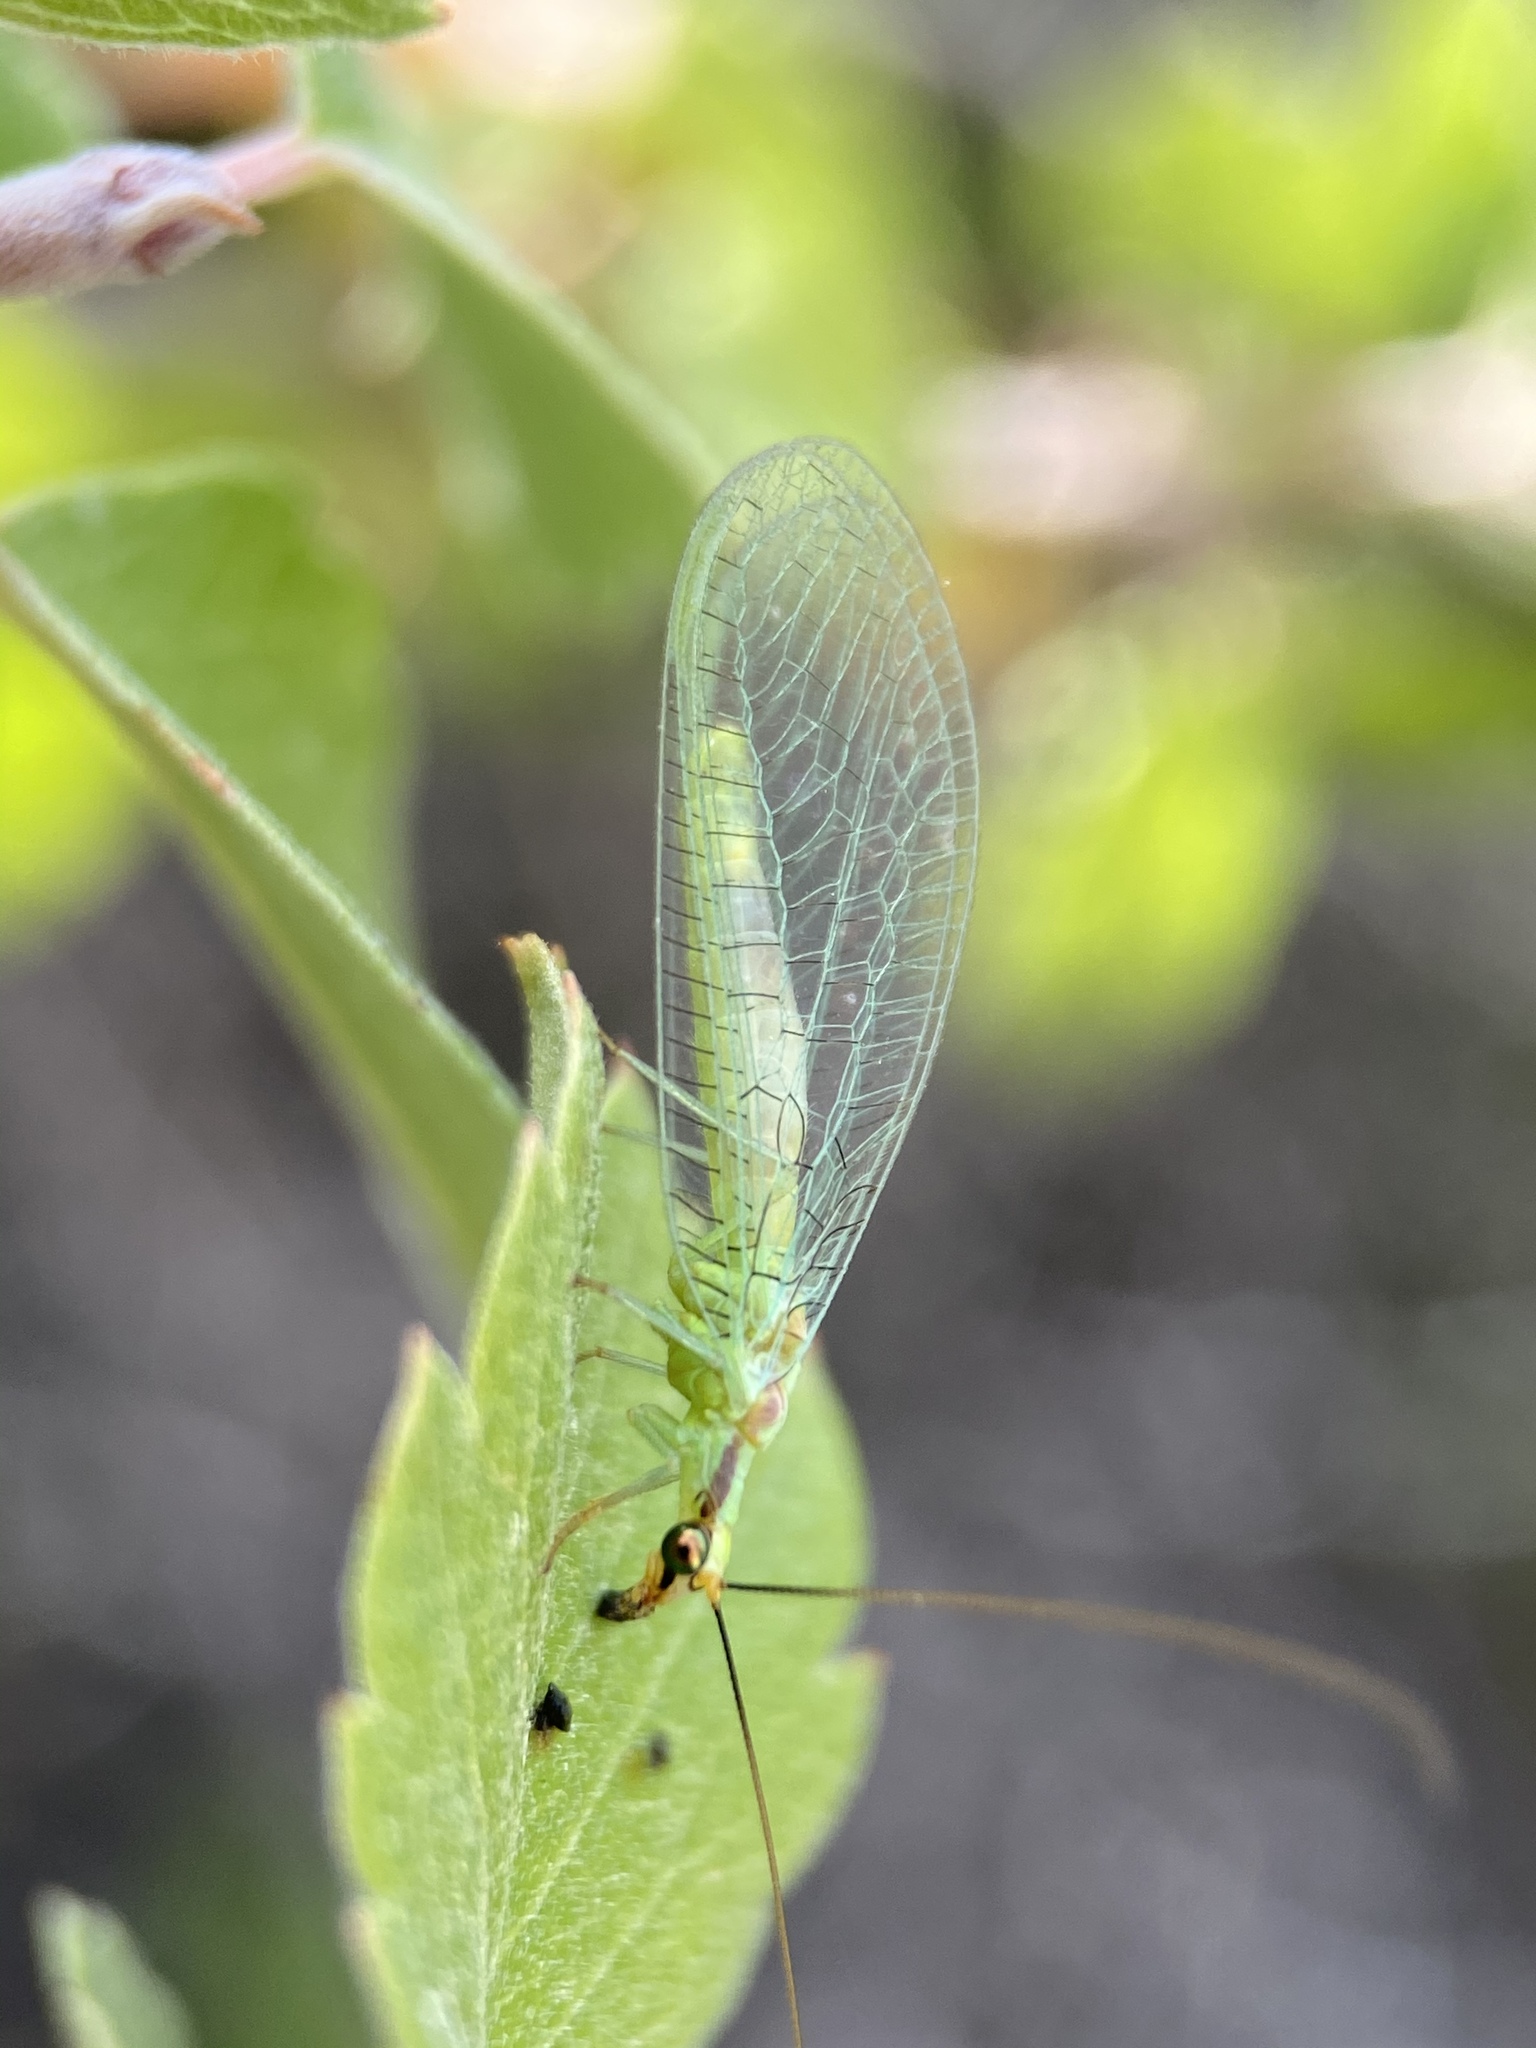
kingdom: Animalia
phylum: Arthropoda
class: Insecta
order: Neuroptera
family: Chrysopidae
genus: Chrysopa
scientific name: Chrysopa coloradensis
